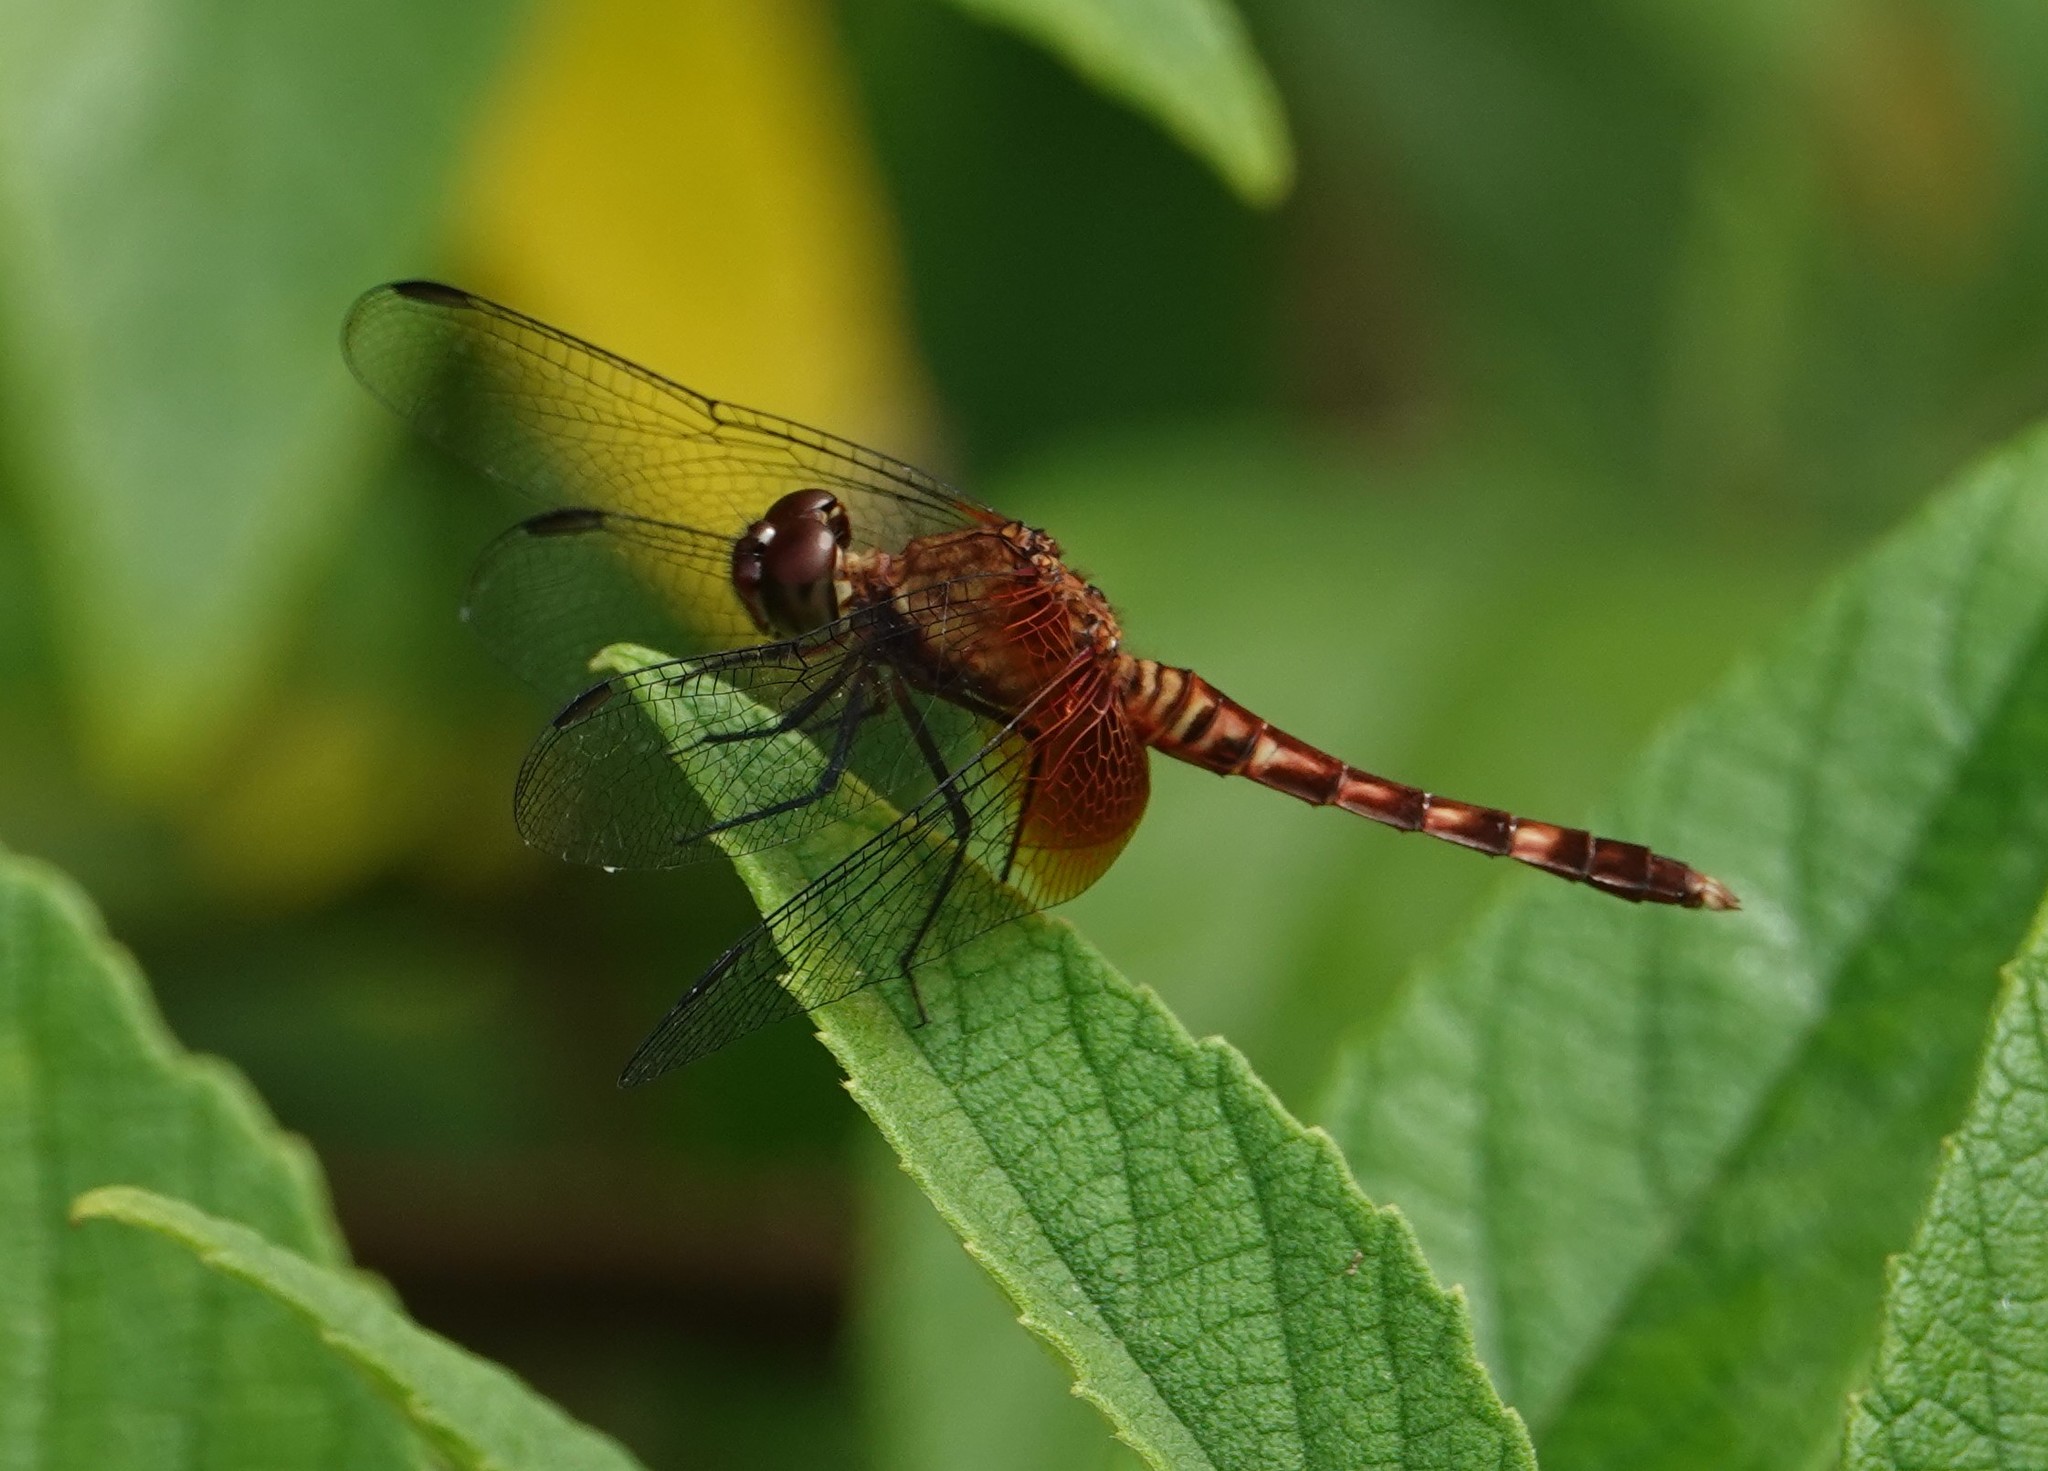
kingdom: Animalia
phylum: Arthropoda
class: Insecta
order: Odonata
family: Libellulidae
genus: Erythrodiplax
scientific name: Erythrodiplax fervida
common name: Red-mantled dragonlet
